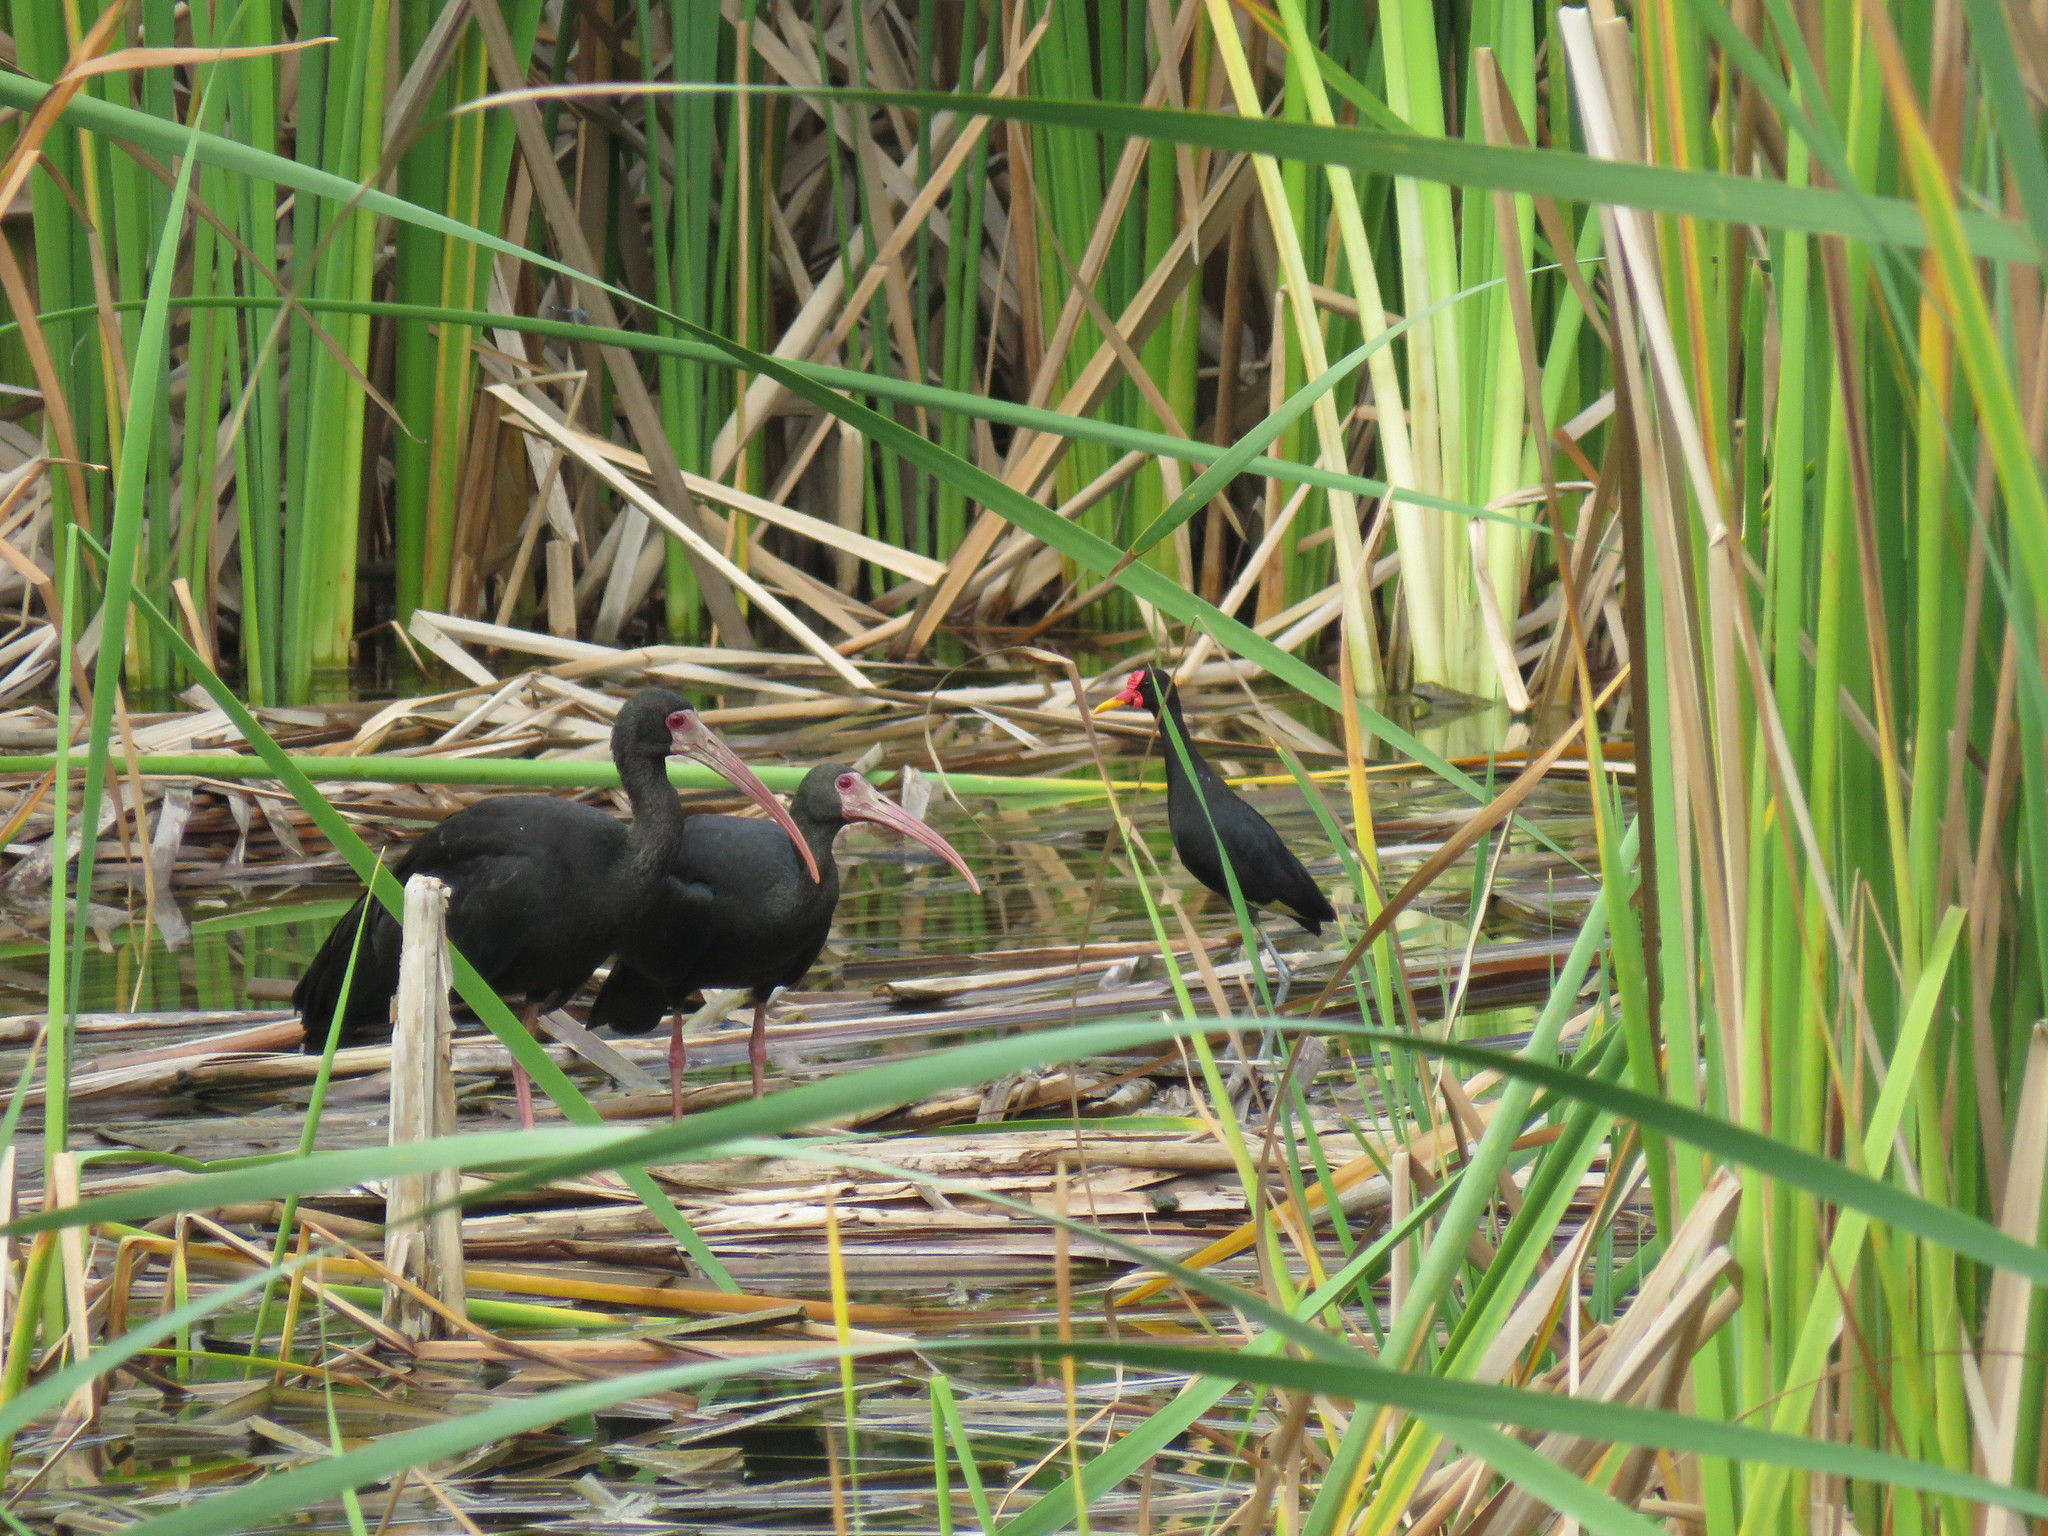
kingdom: Animalia
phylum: Chordata
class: Aves
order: Charadriiformes
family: Jacanidae
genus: Jacana
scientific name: Jacana jacana
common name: Wattled jacana
